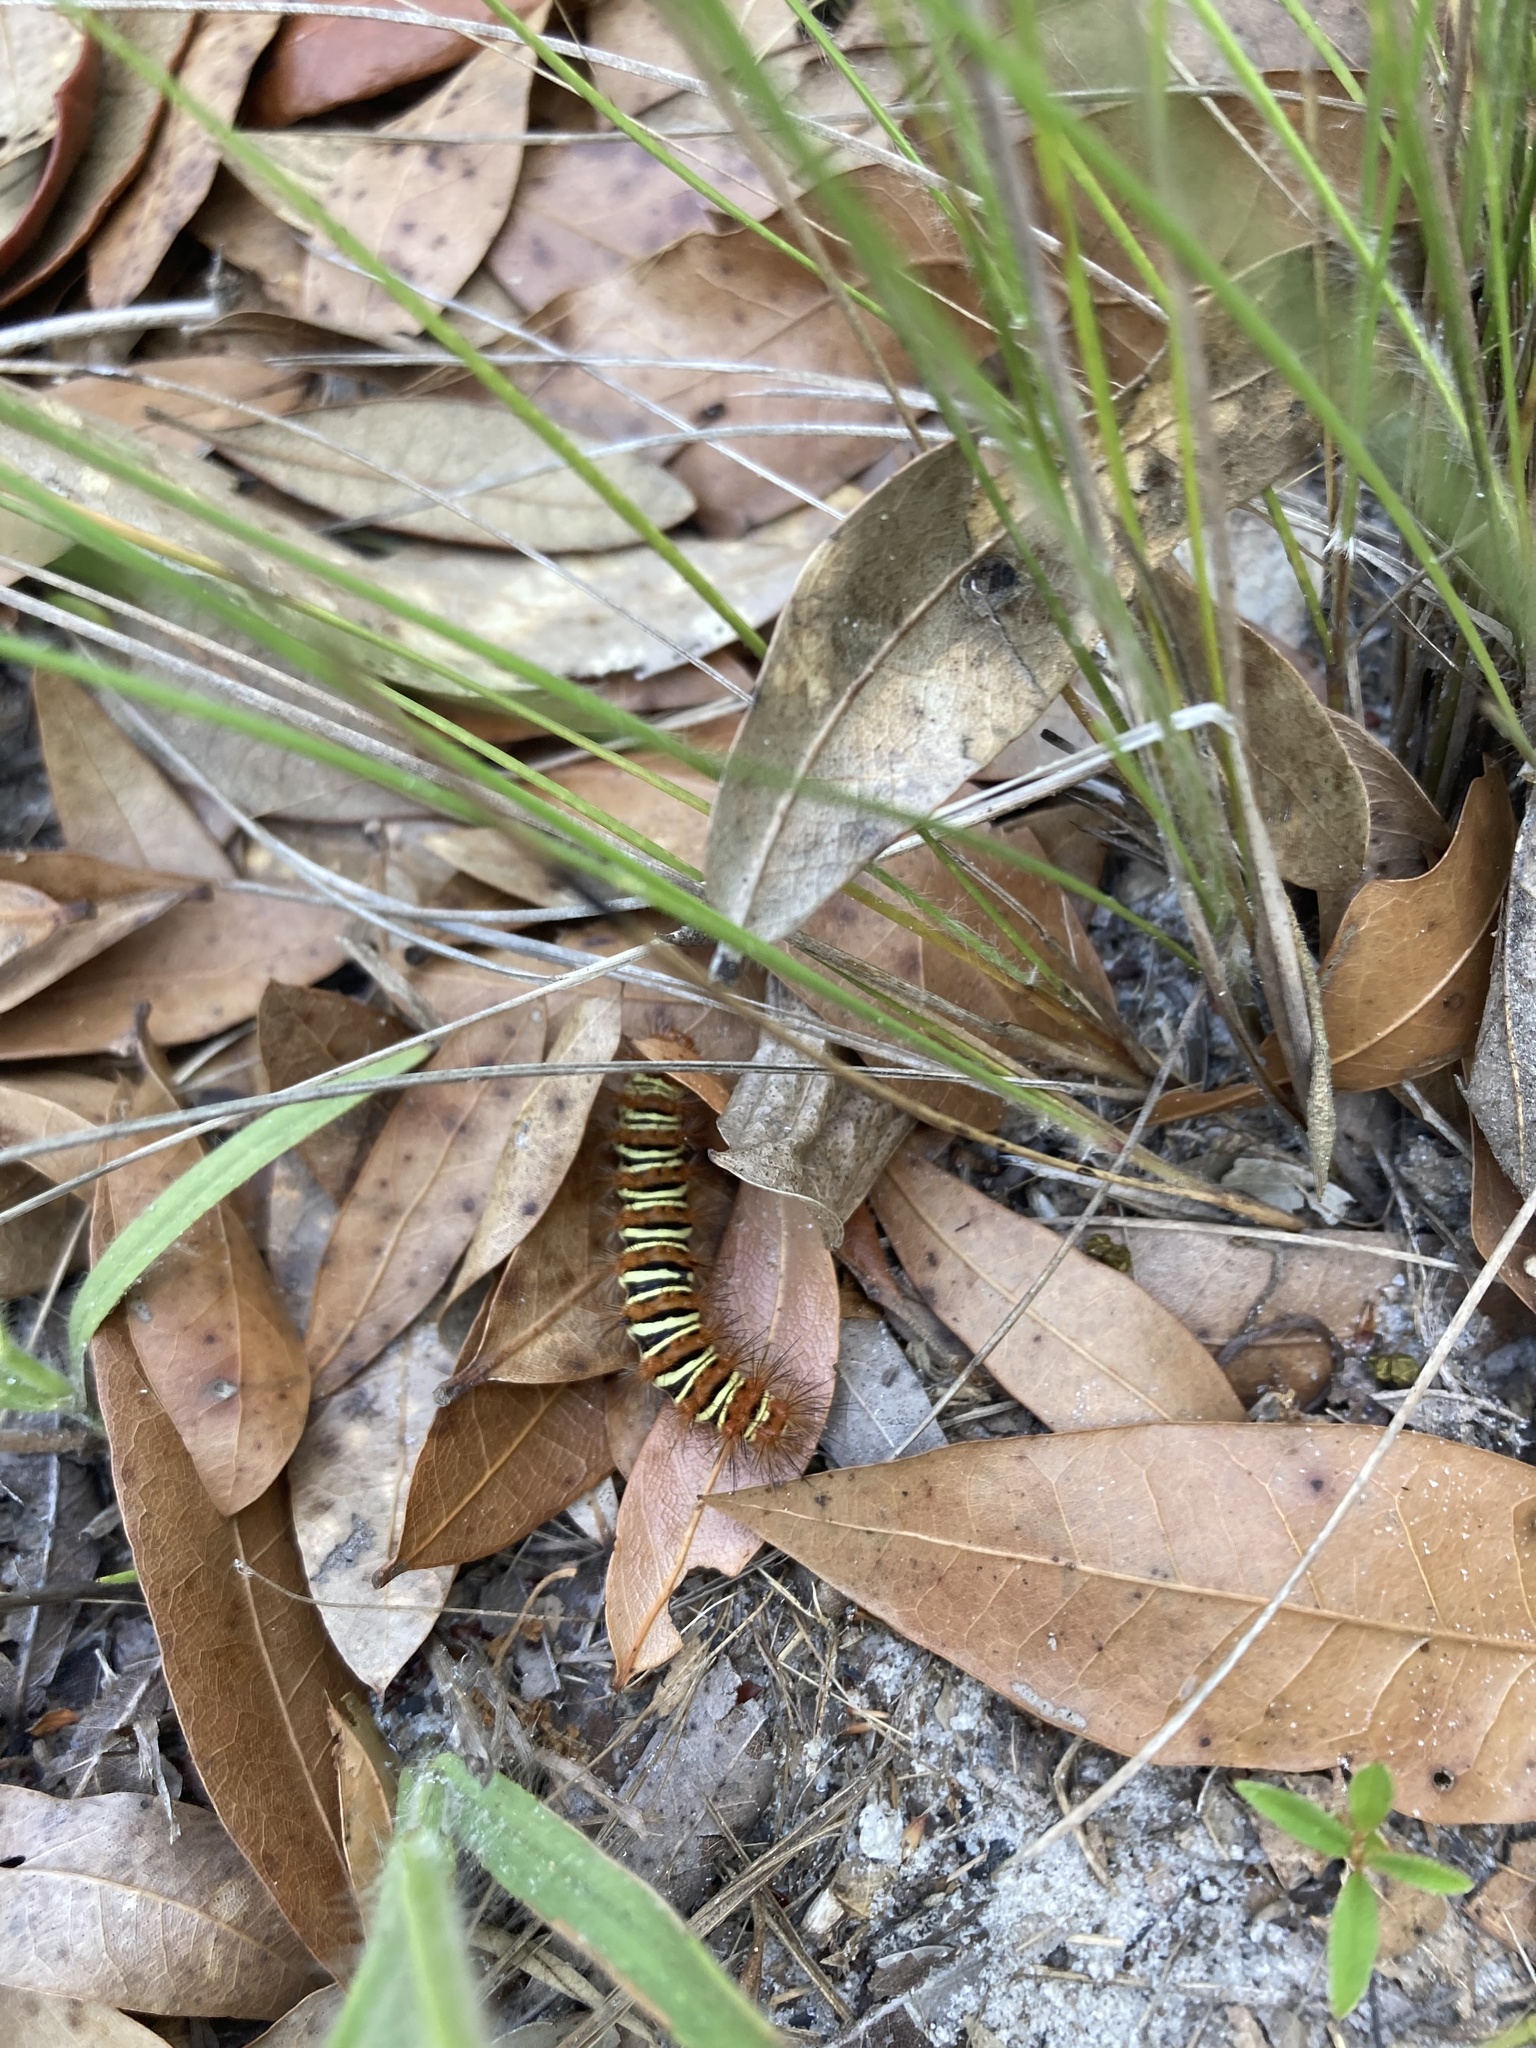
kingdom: Animalia
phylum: Arthropoda
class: Insecta
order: Lepidoptera
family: Erebidae
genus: Seirarctia
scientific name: Seirarctia echo
